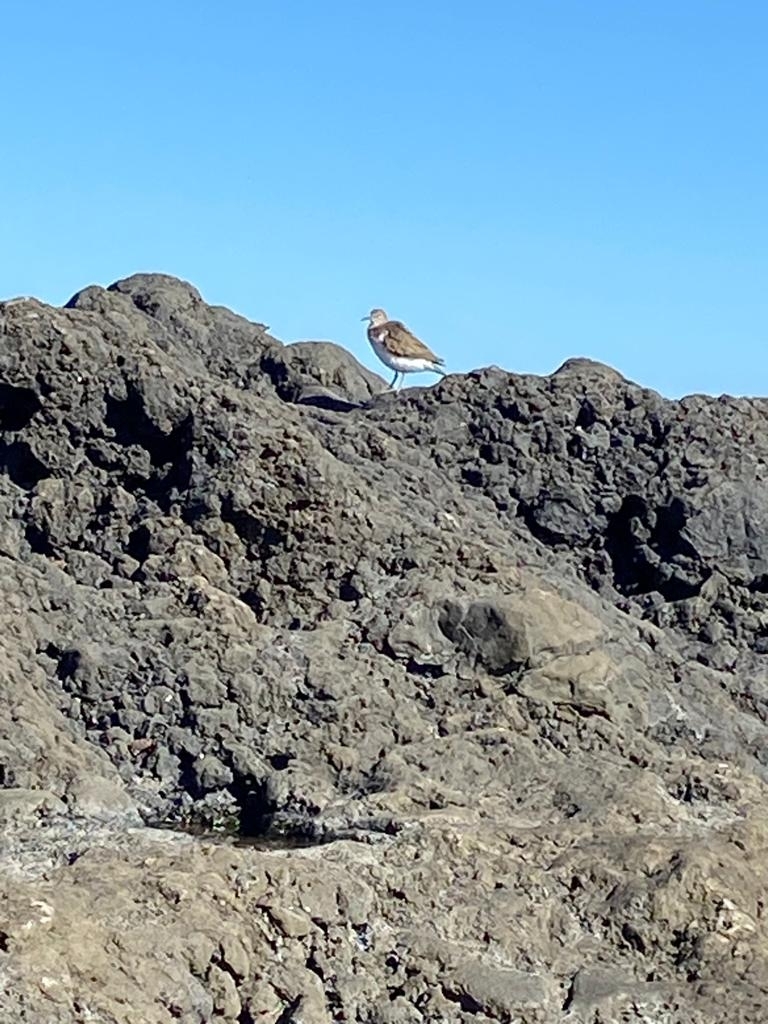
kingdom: Animalia
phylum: Chordata
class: Aves
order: Charadriiformes
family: Scolopacidae
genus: Actitis
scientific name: Actitis hypoleucos
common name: Common sandpiper
